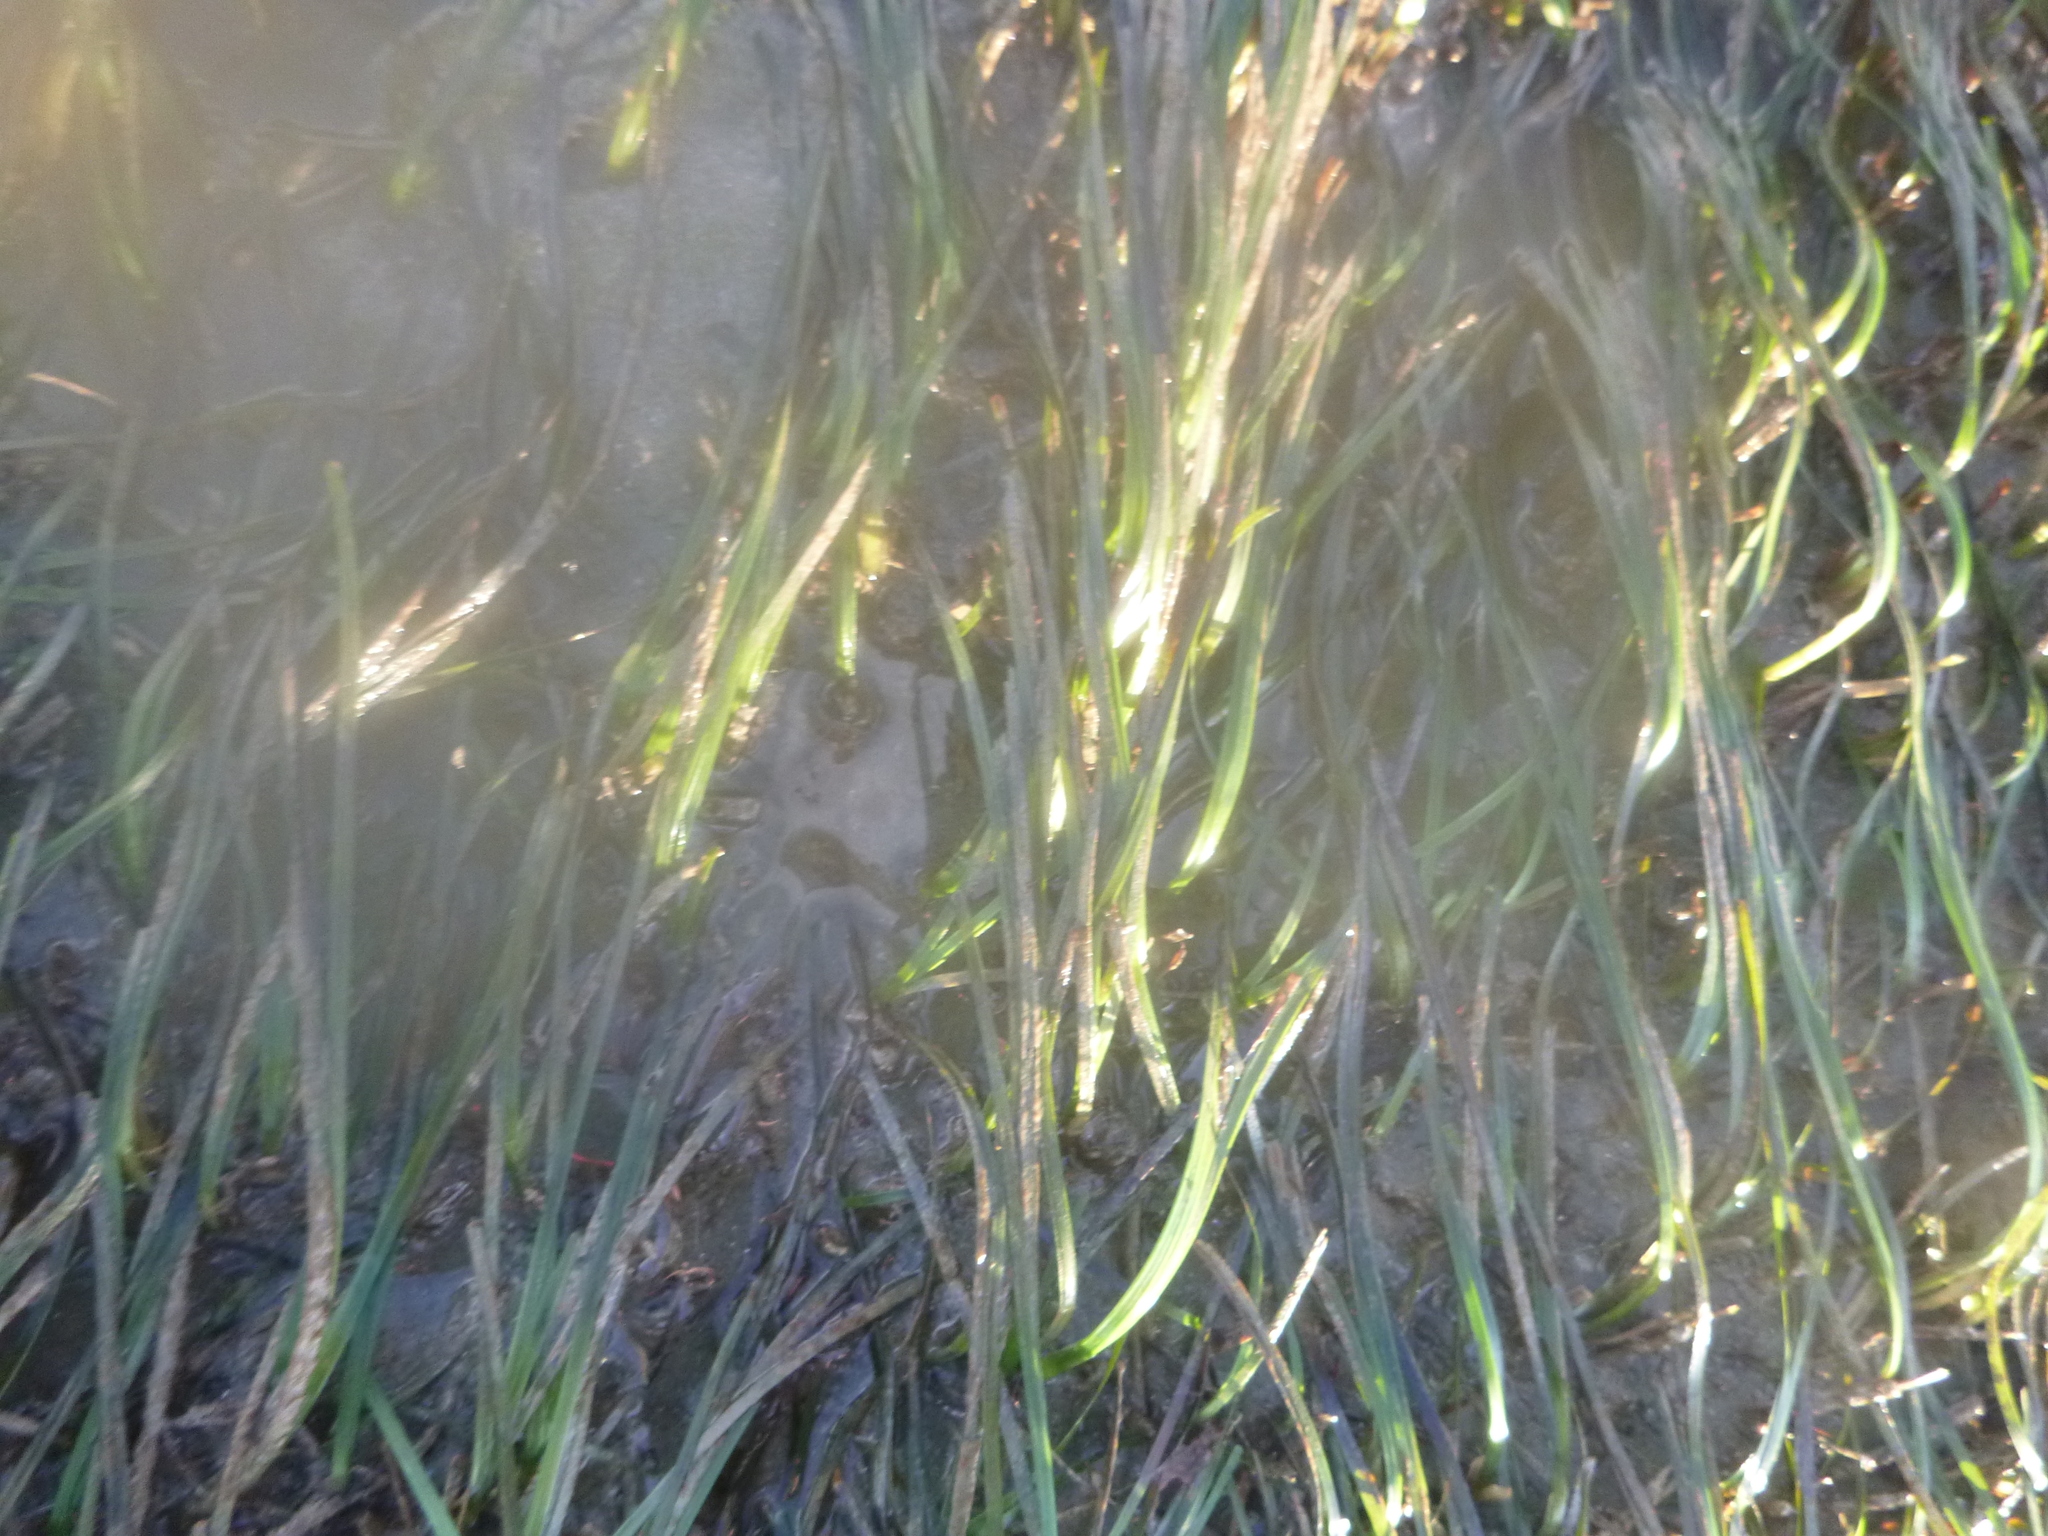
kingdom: Plantae
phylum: Tracheophyta
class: Liliopsida
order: Alismatales
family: Zosteraceae
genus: Zostera
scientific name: Zostera novazelandica
